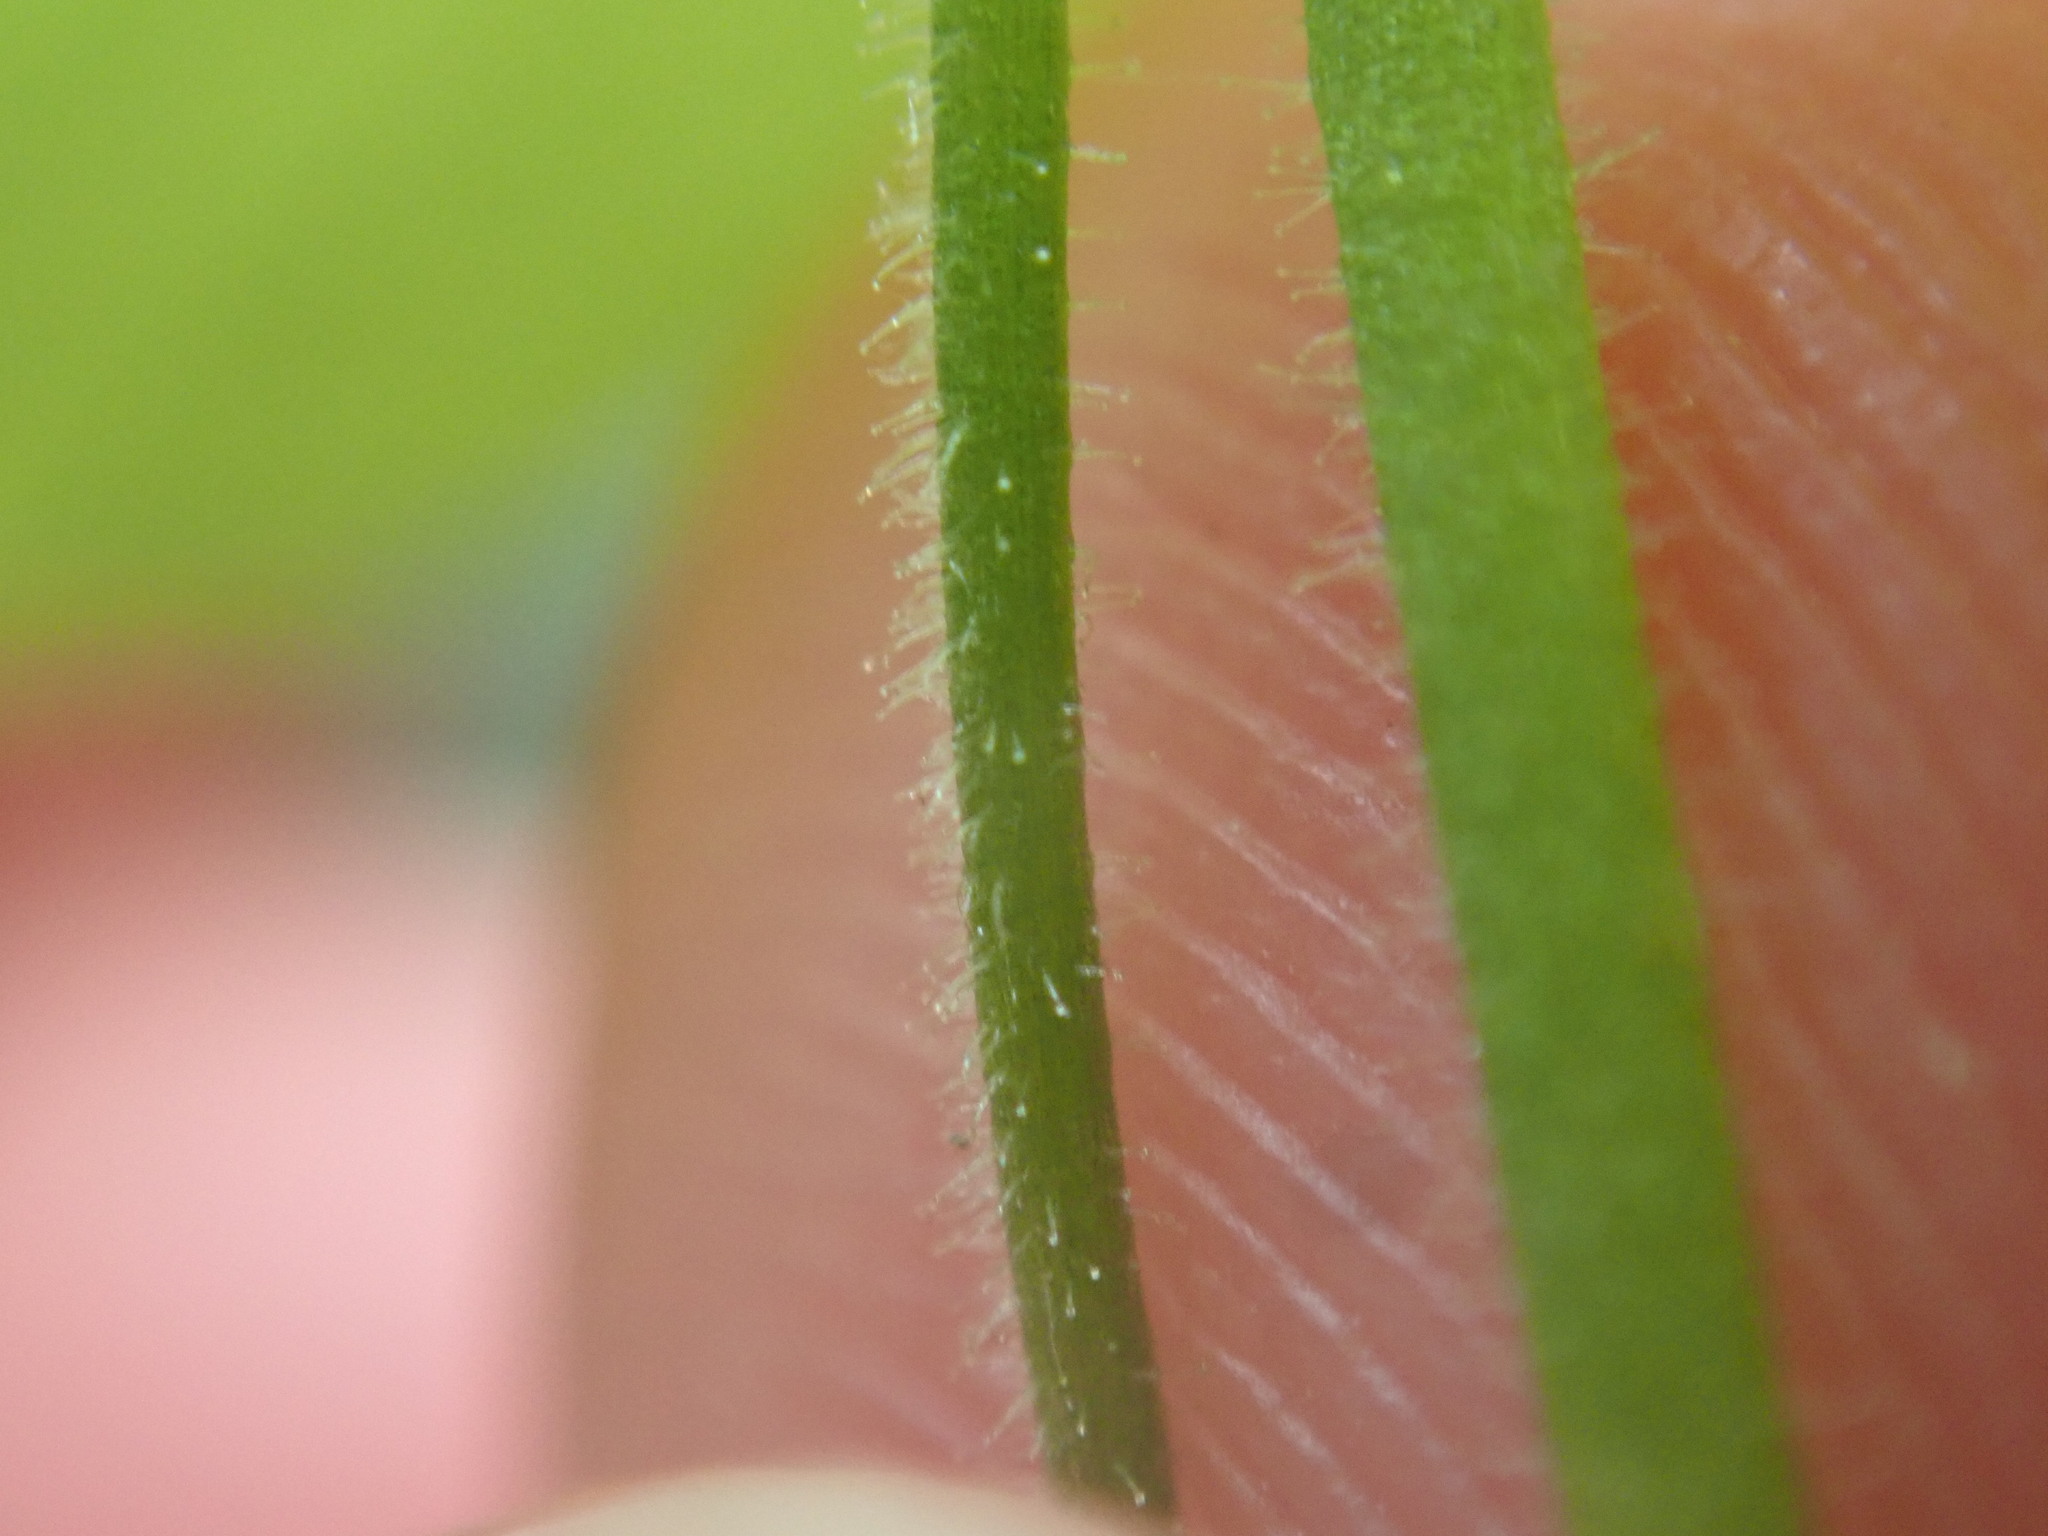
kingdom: Plantae
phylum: Tracheophyta
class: Magnoliopsida
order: Caryophyllales
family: Caryophyllaceae
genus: Stellaria
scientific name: Stellaria nemorum
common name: Wood stitchwort
